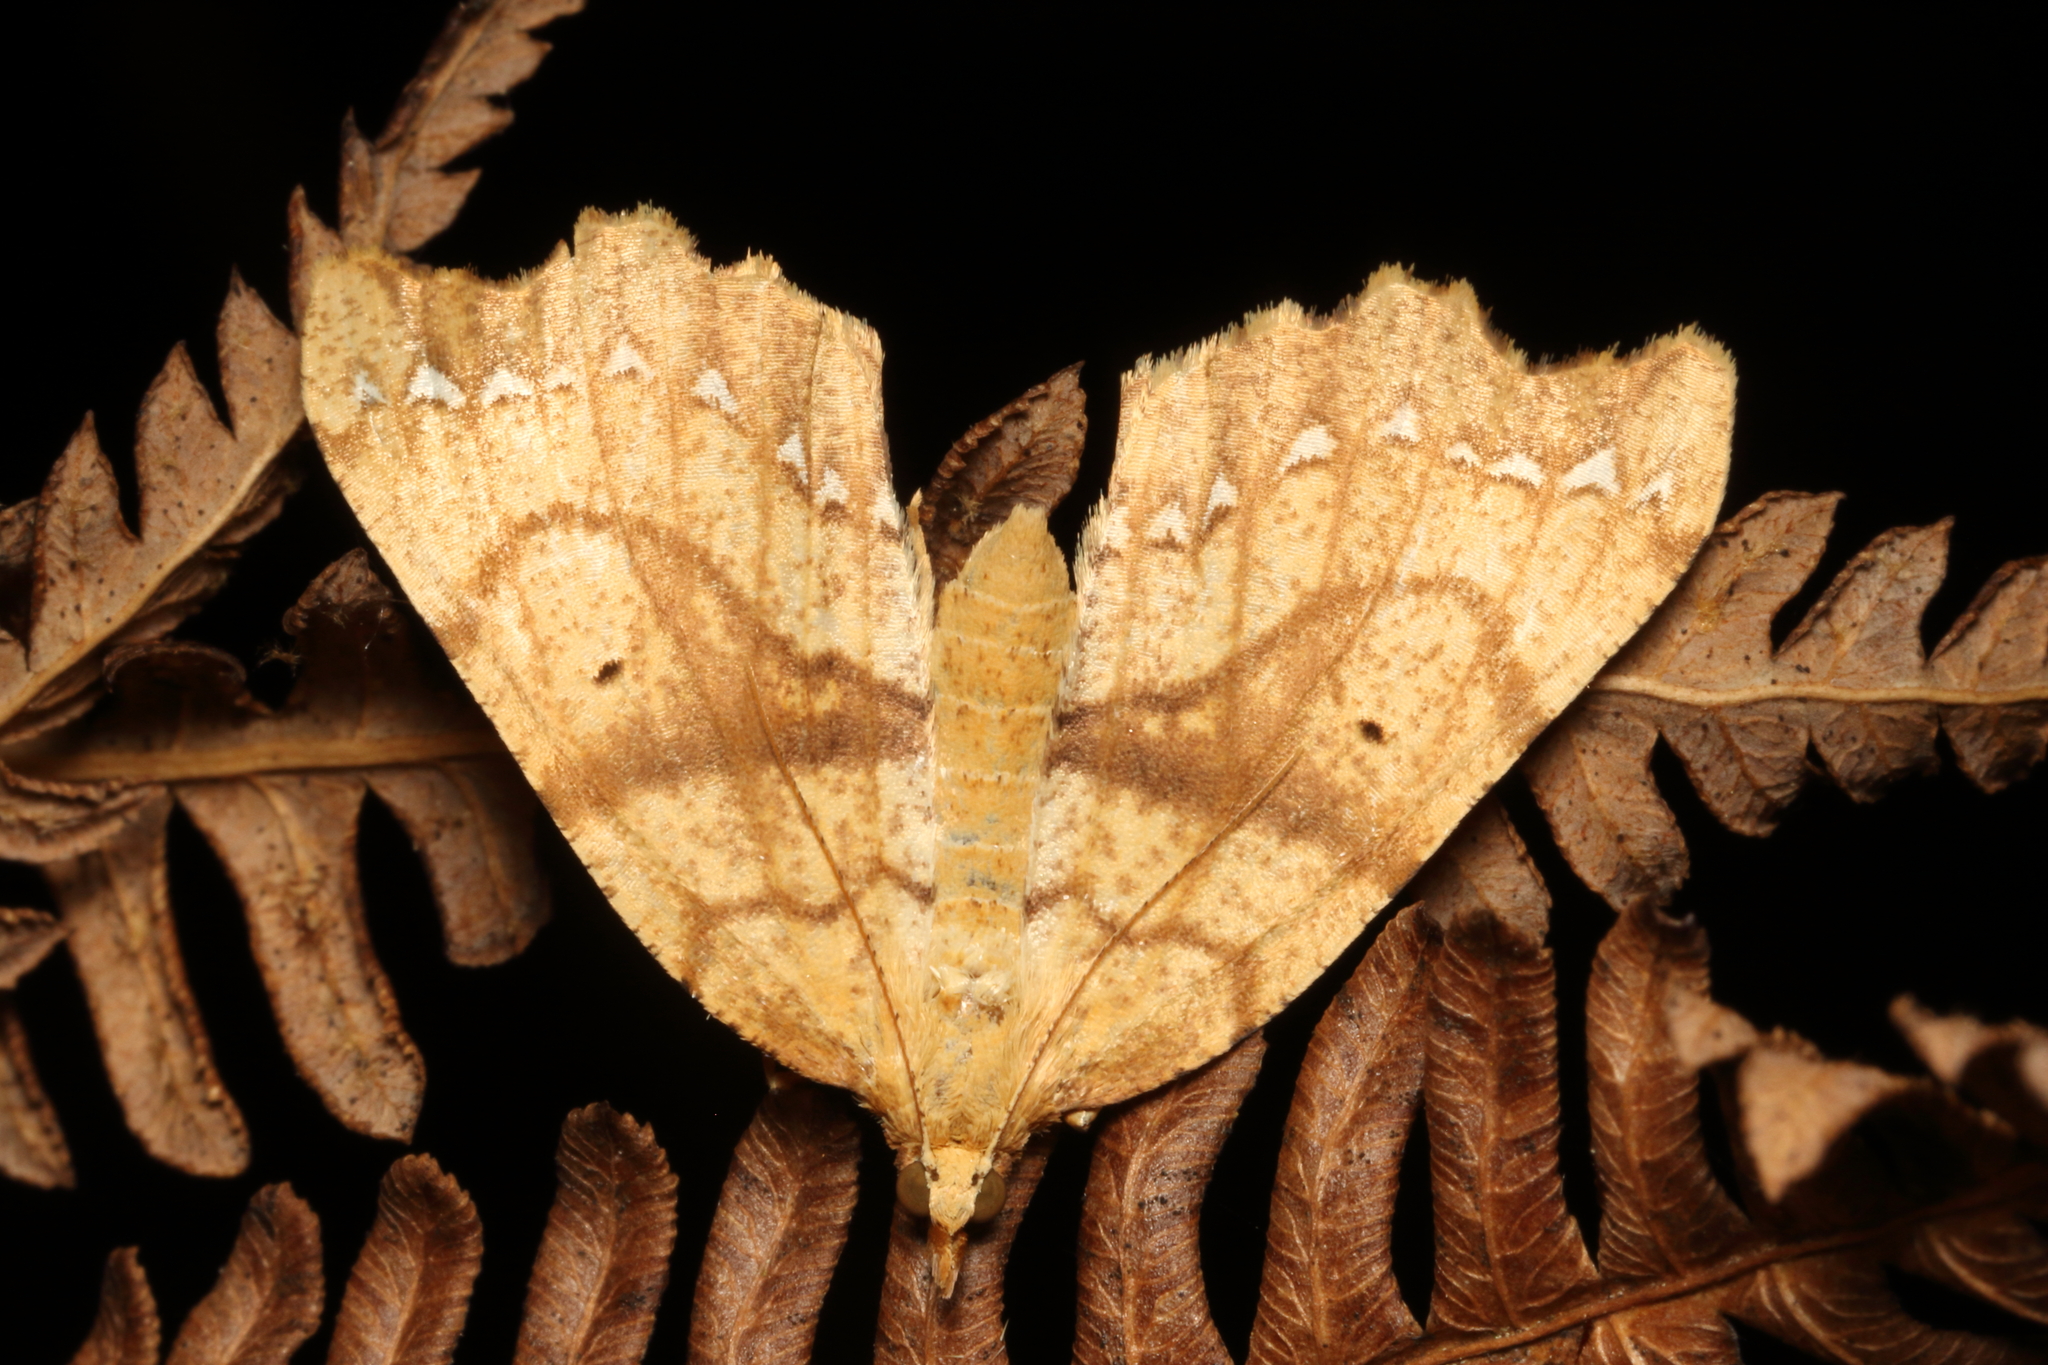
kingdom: Animalia
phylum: Arthropoda
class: Insecta
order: Lepidoptera
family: Geometridae
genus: Chalastra
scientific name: Chalastra pellurgata
